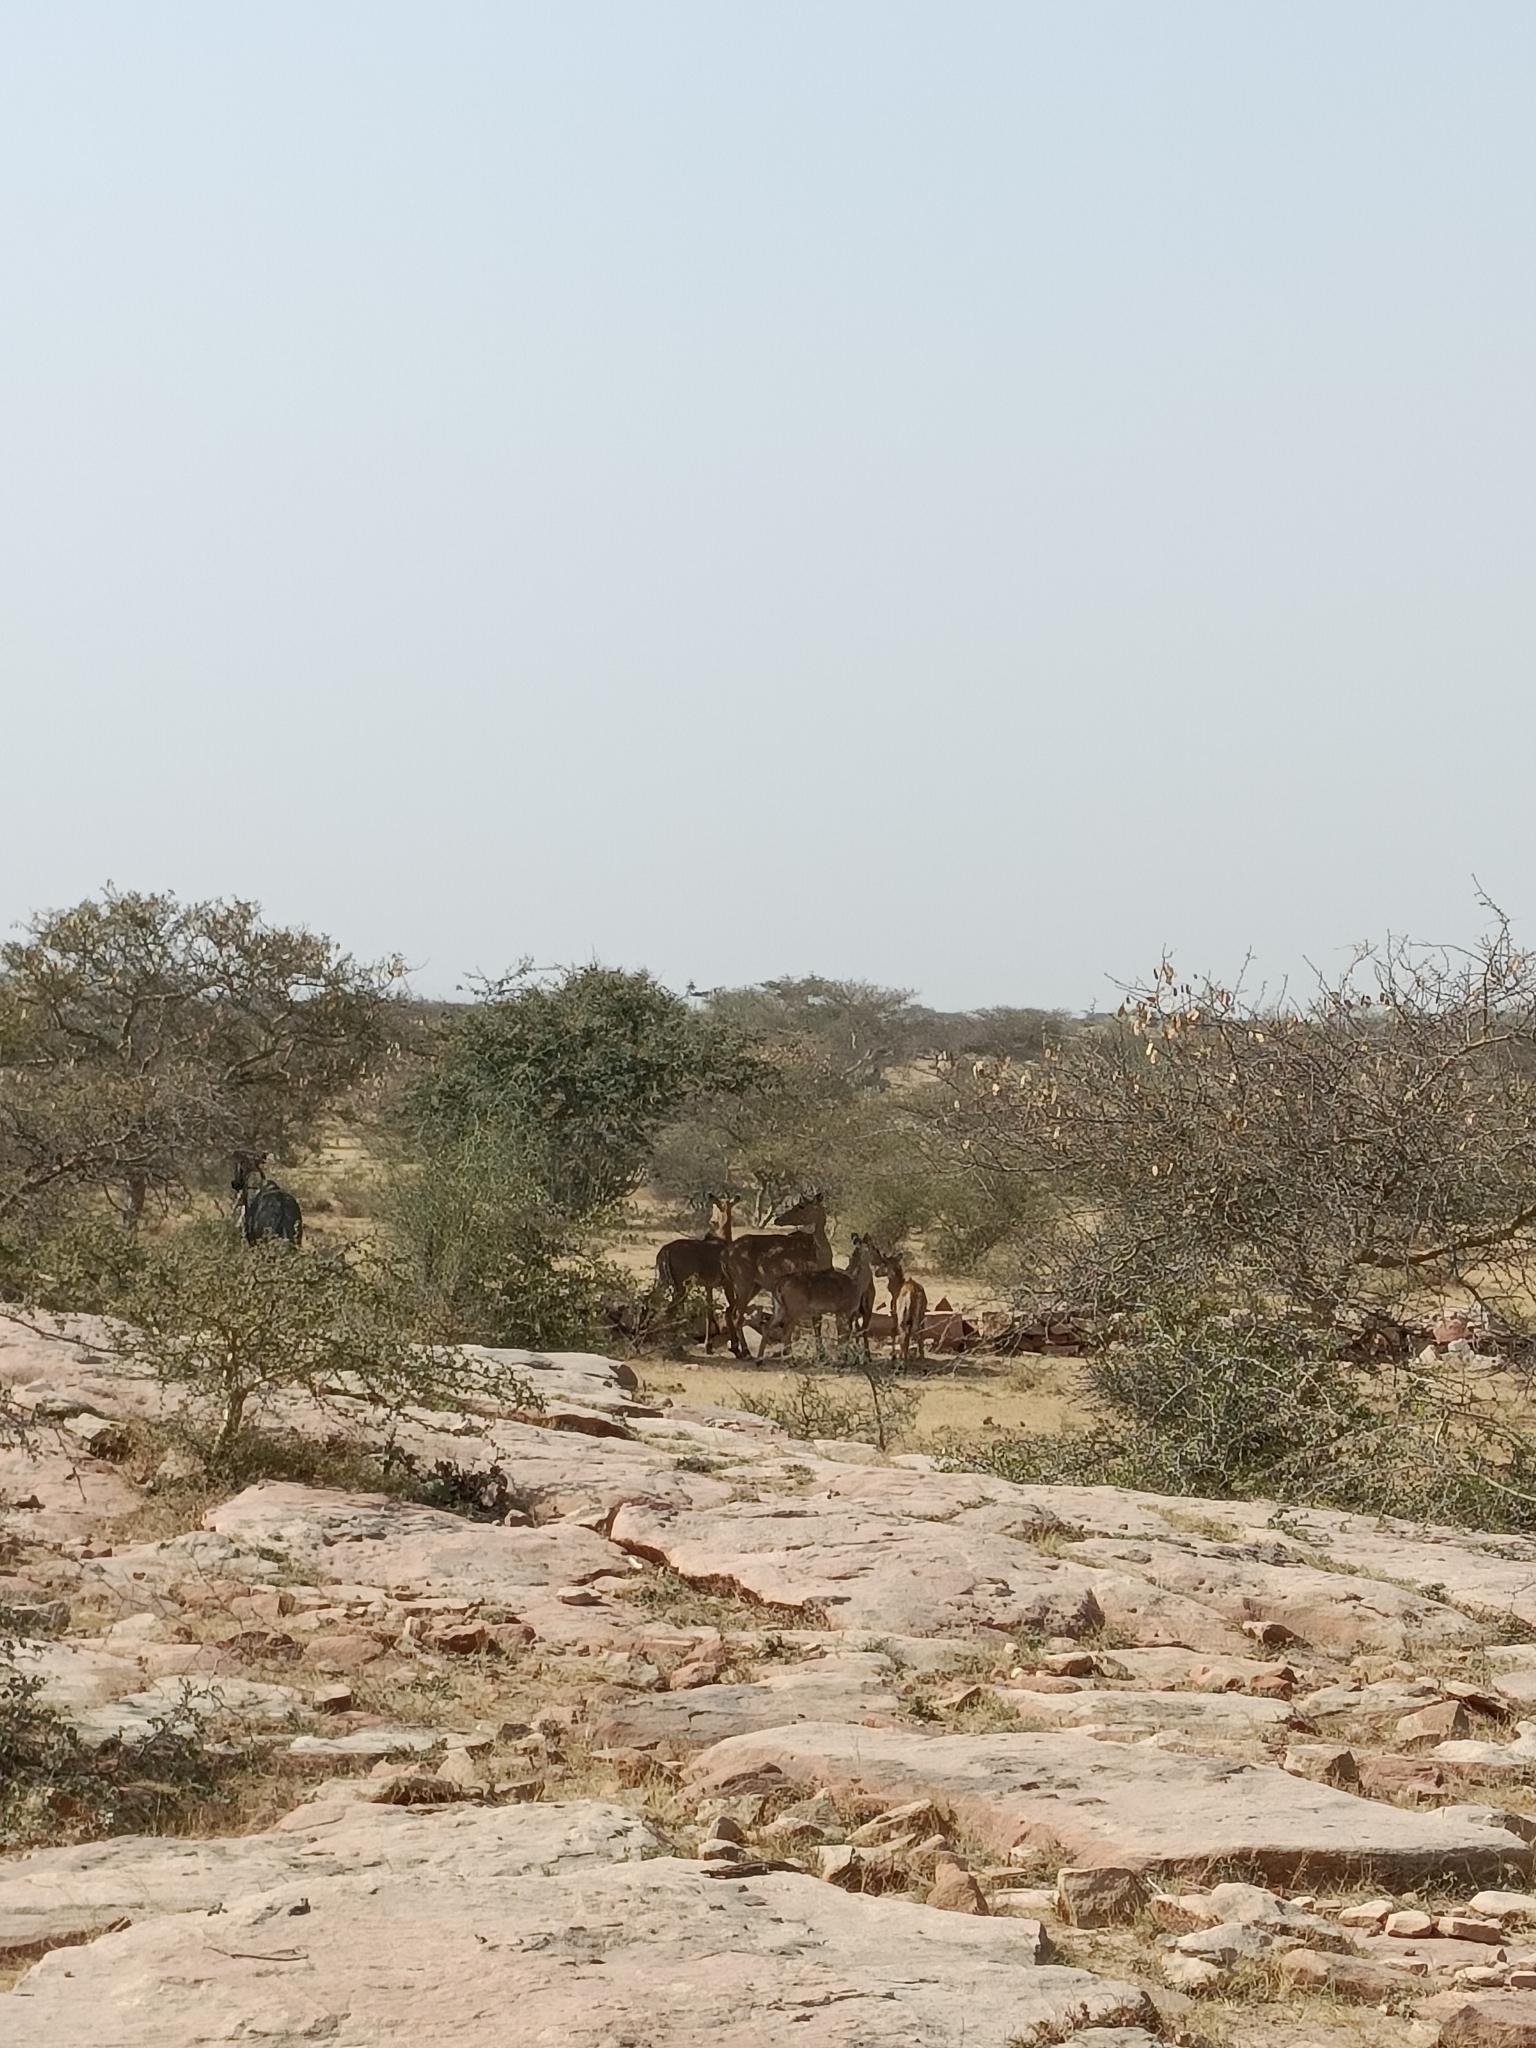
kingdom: Animalia
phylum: Chordata
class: Mammalia
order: Artiodactyla
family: Bovidae
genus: Boselaphus
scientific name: Boselaphus tragocamelus
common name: Nilgai
